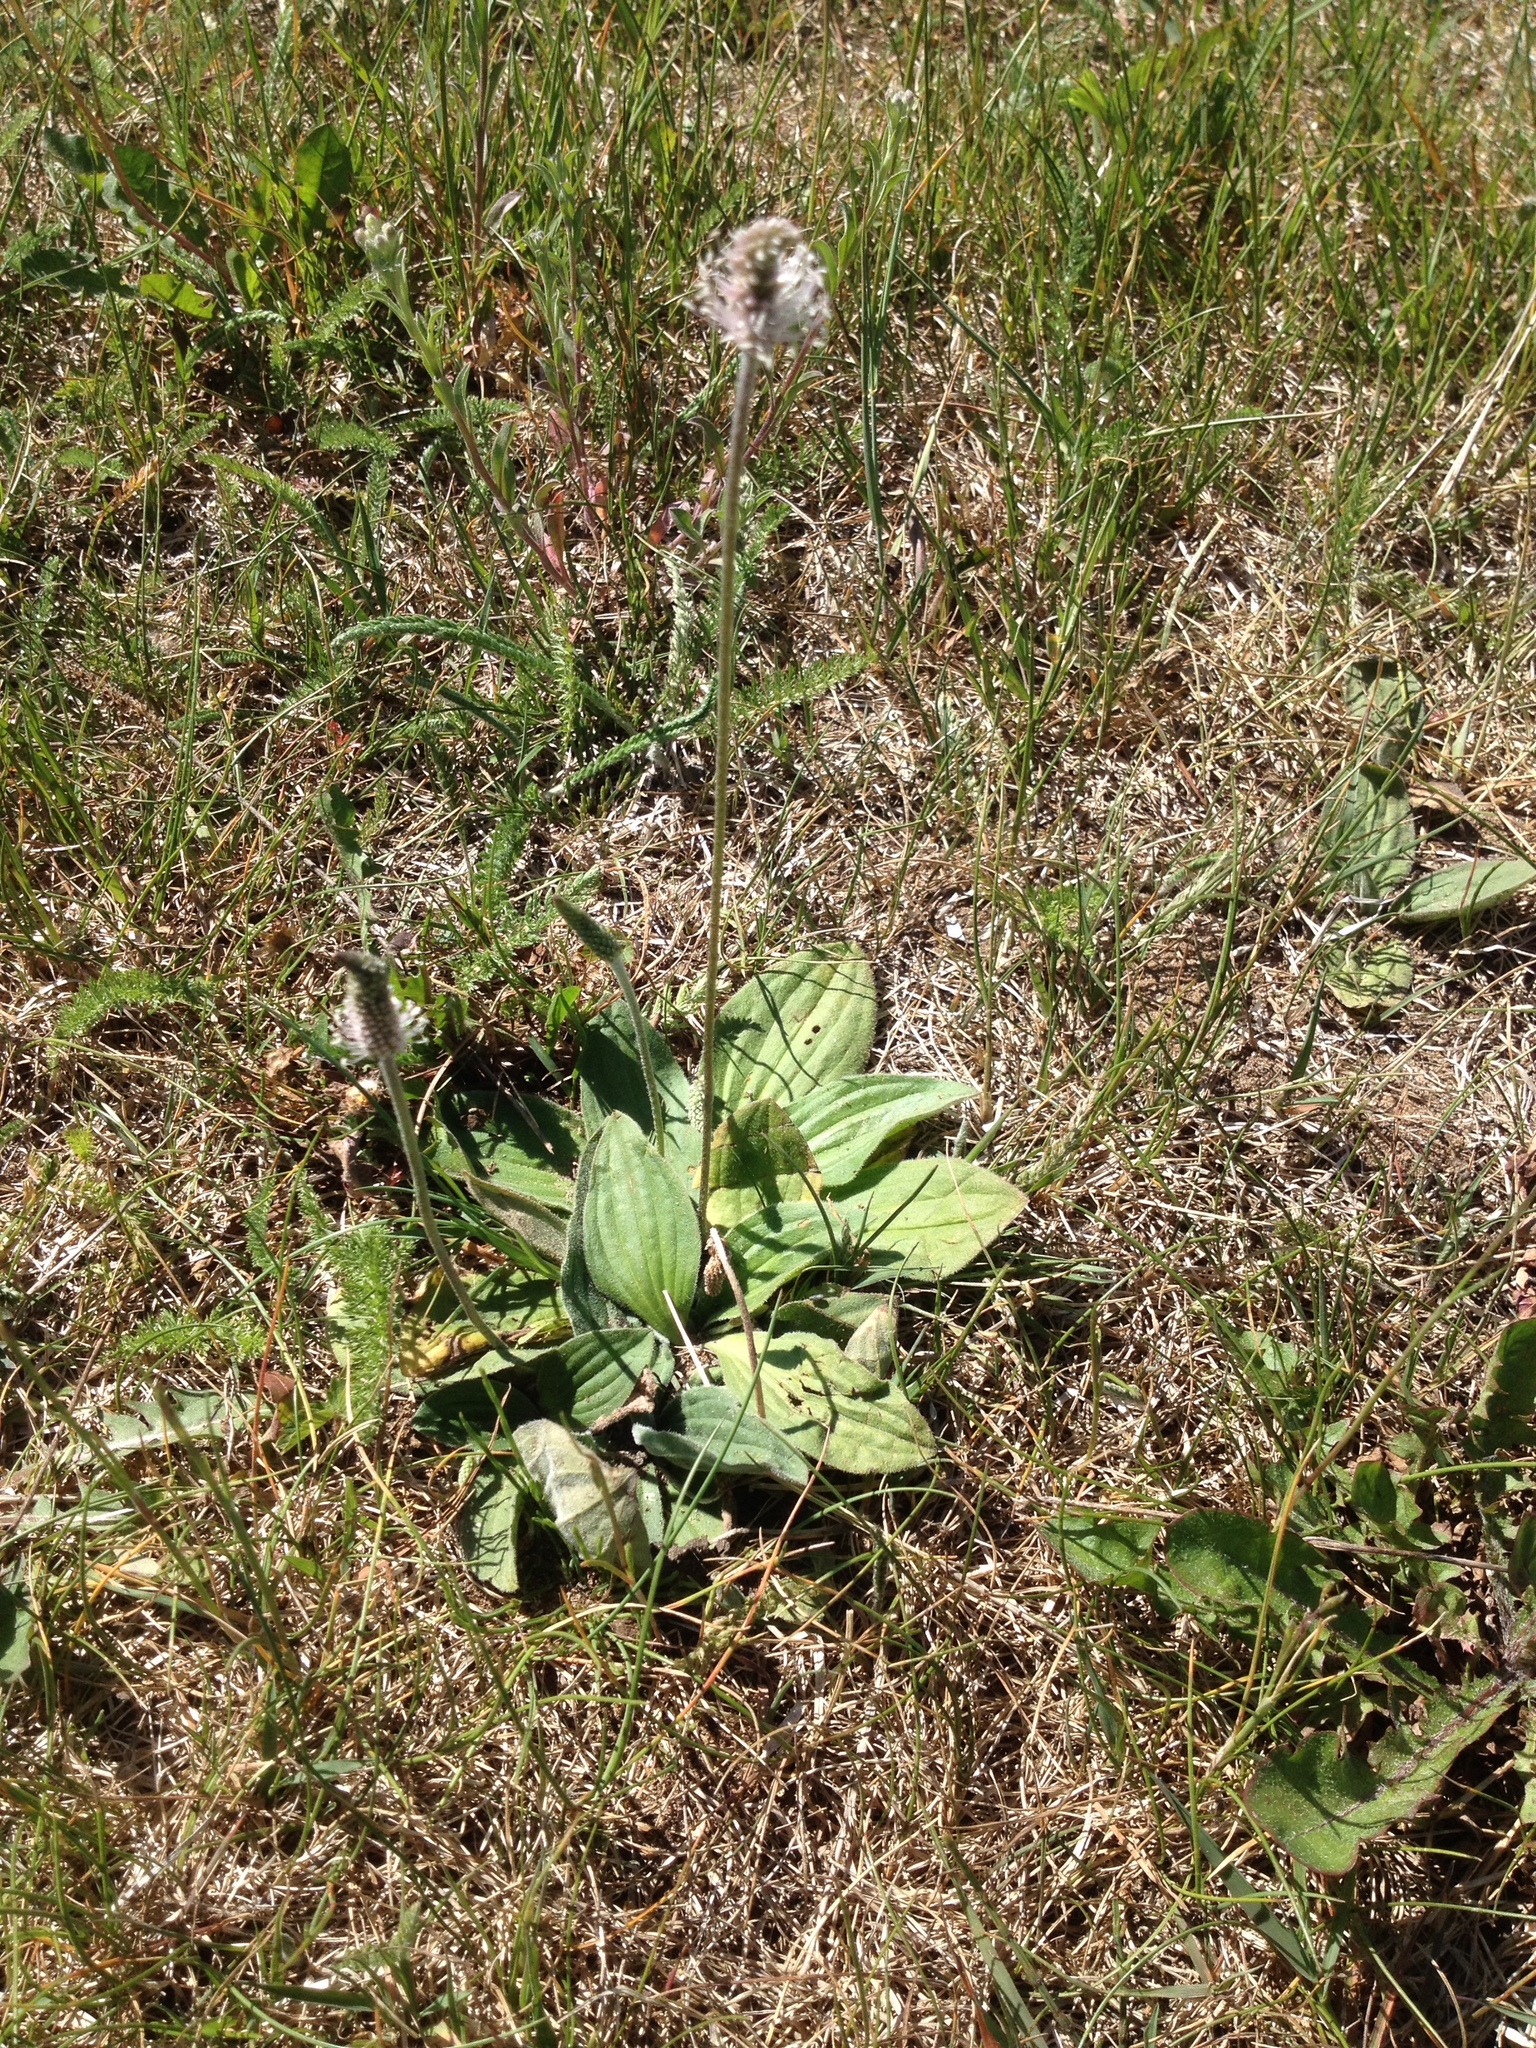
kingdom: Plantae
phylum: Tracheophyta
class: Magnoliopsida
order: Lamiales
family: Plantaginaceae
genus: Plantago
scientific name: Plantago media
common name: Hoary plantain
